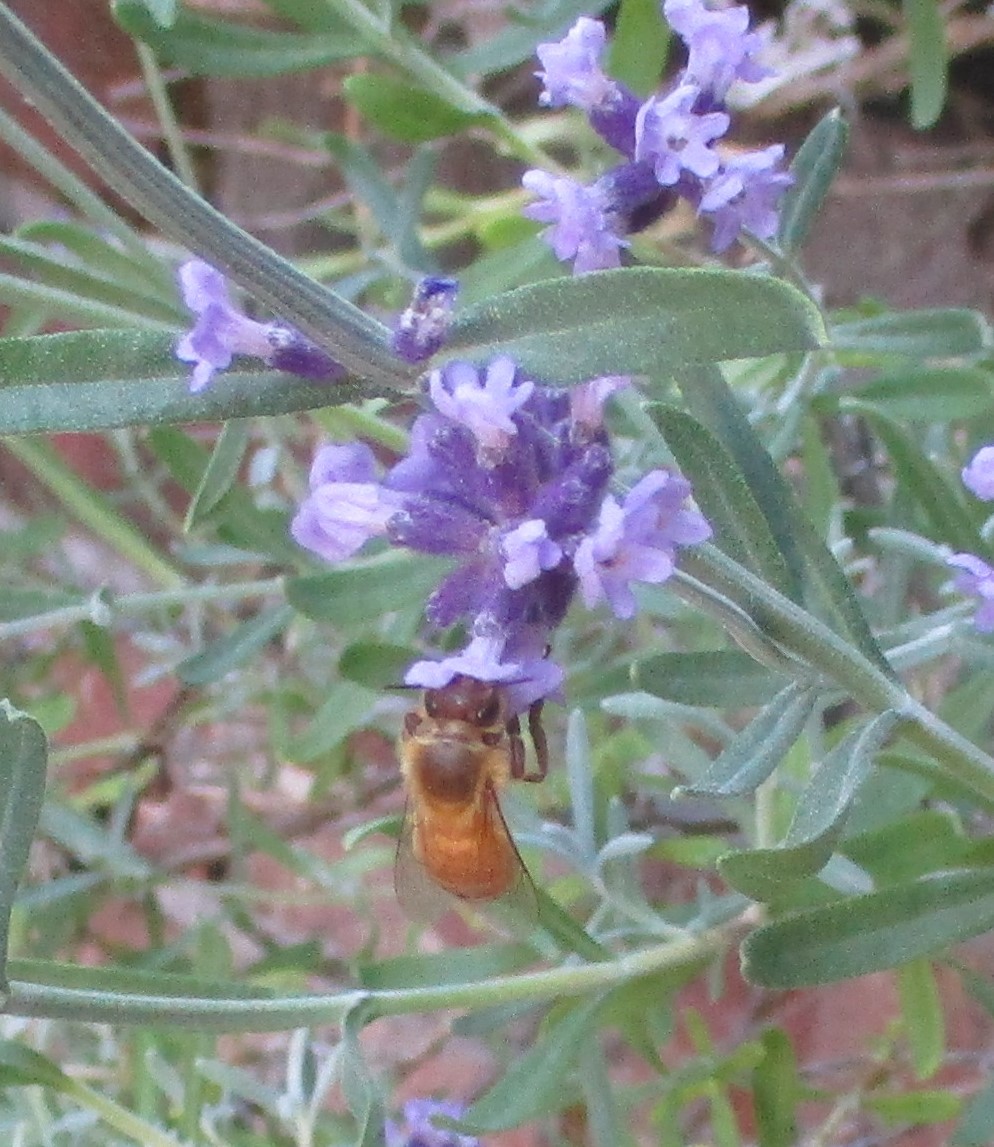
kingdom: Animalia
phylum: Arthropoda
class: Insecta
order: Hymenoptera
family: Apidae
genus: Apis
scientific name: Apis mellifera
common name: Honey bee
